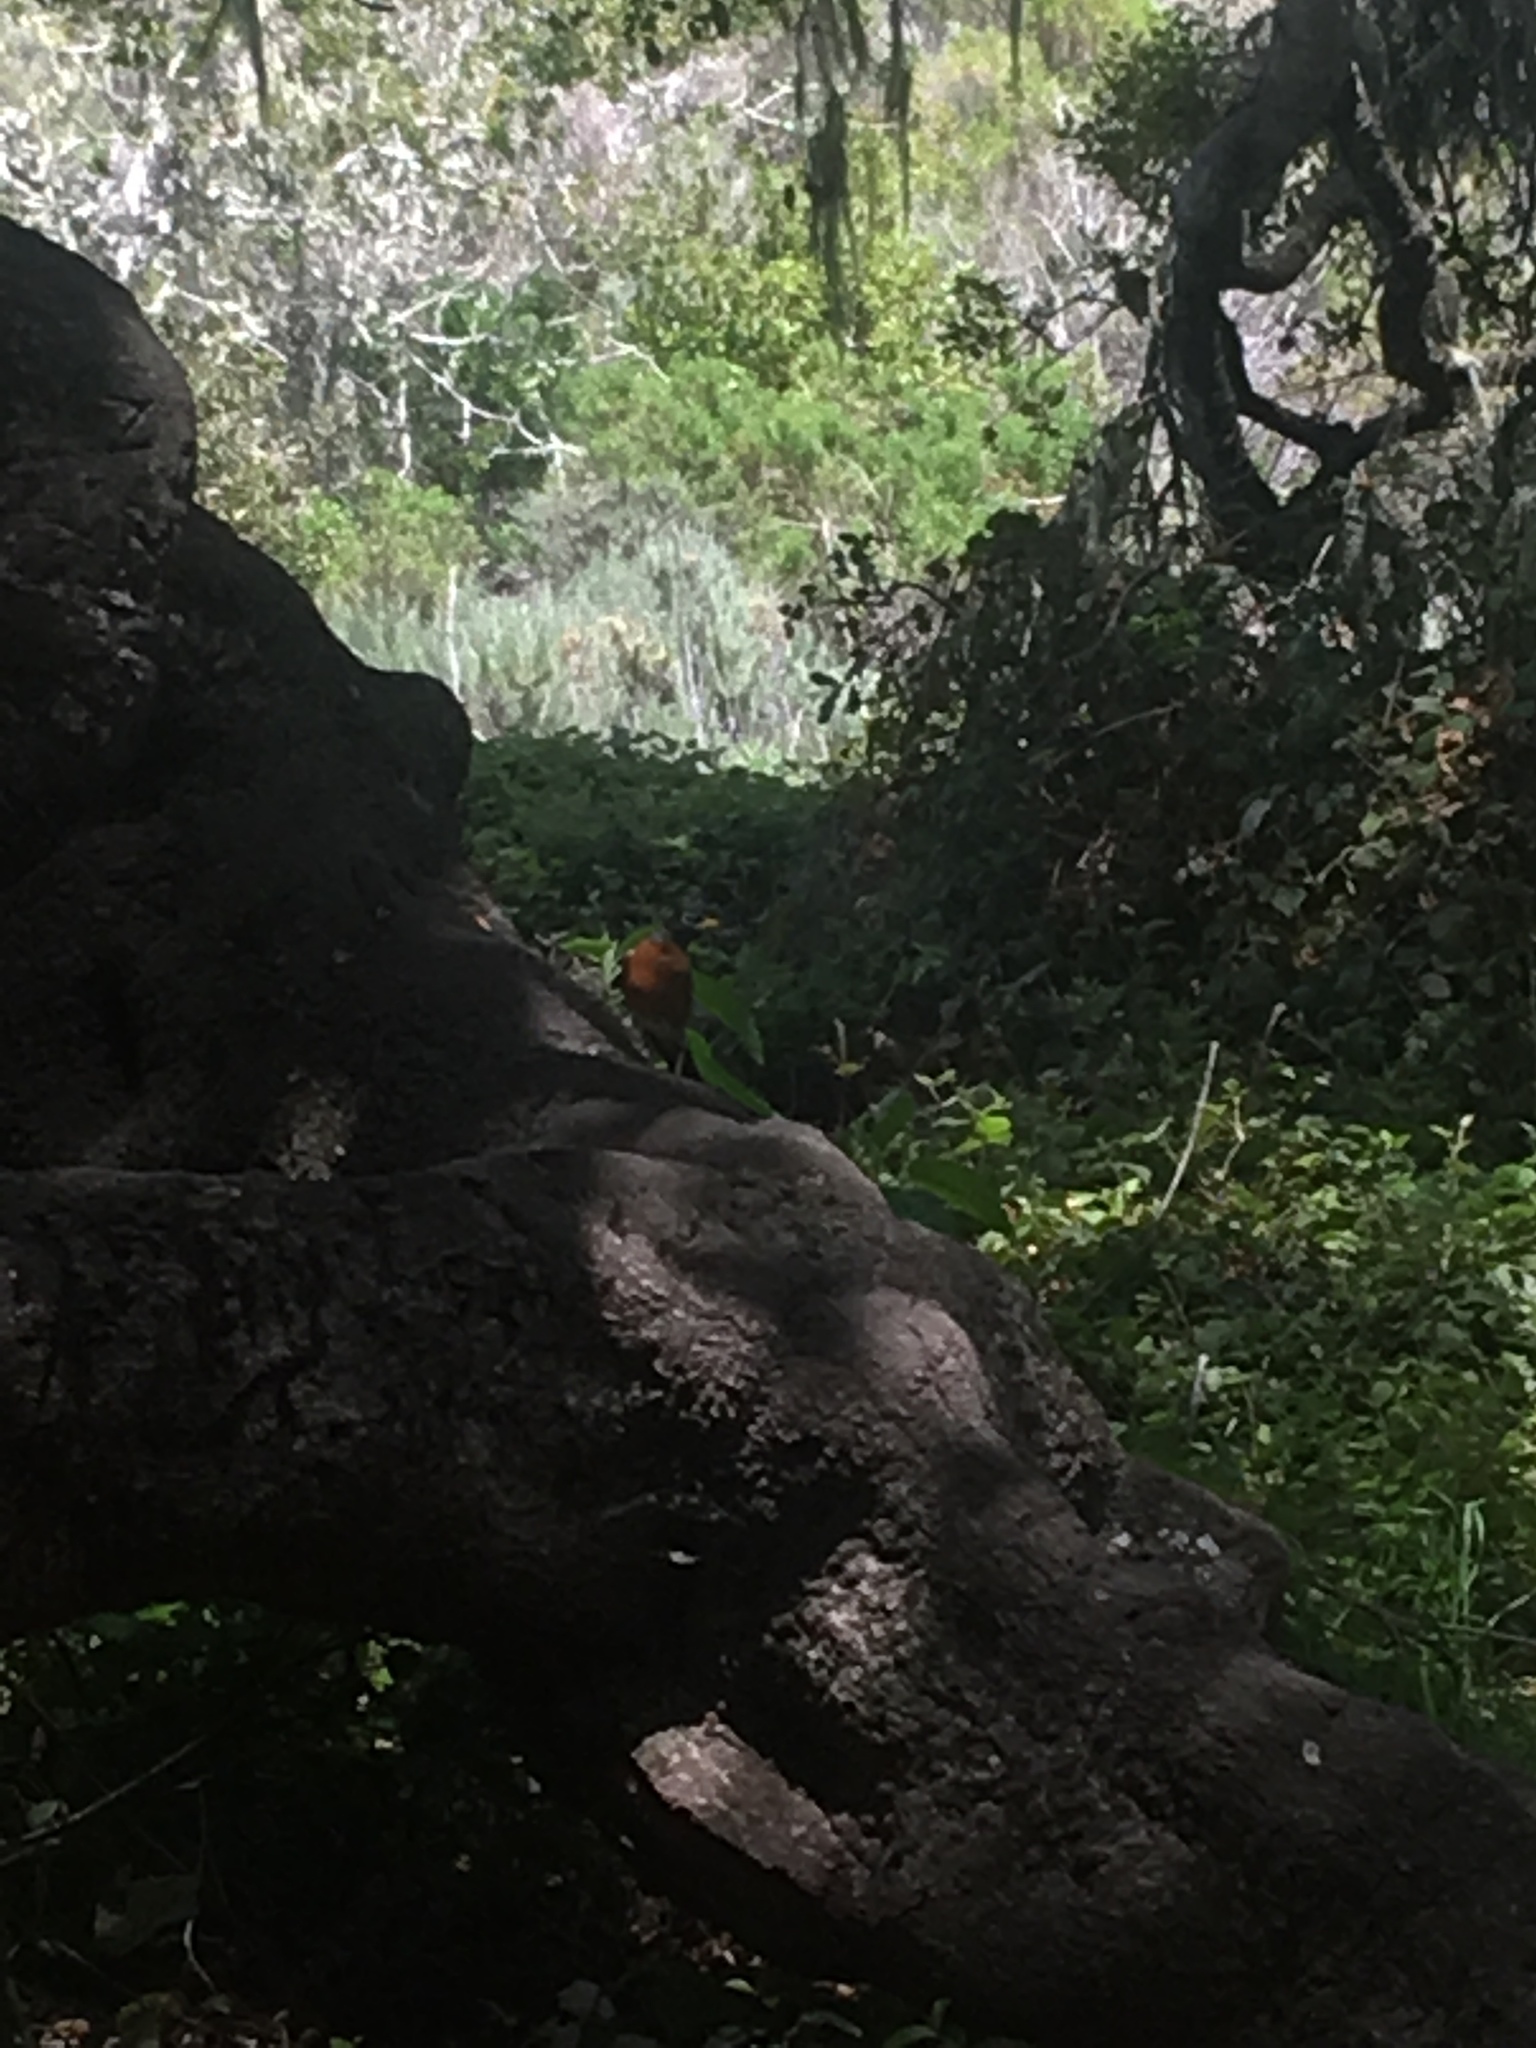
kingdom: Animalia
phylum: Chordata
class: Aves
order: Passeriformes
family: Turdidae
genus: Turdus
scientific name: Turdus migratorius
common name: American robin
